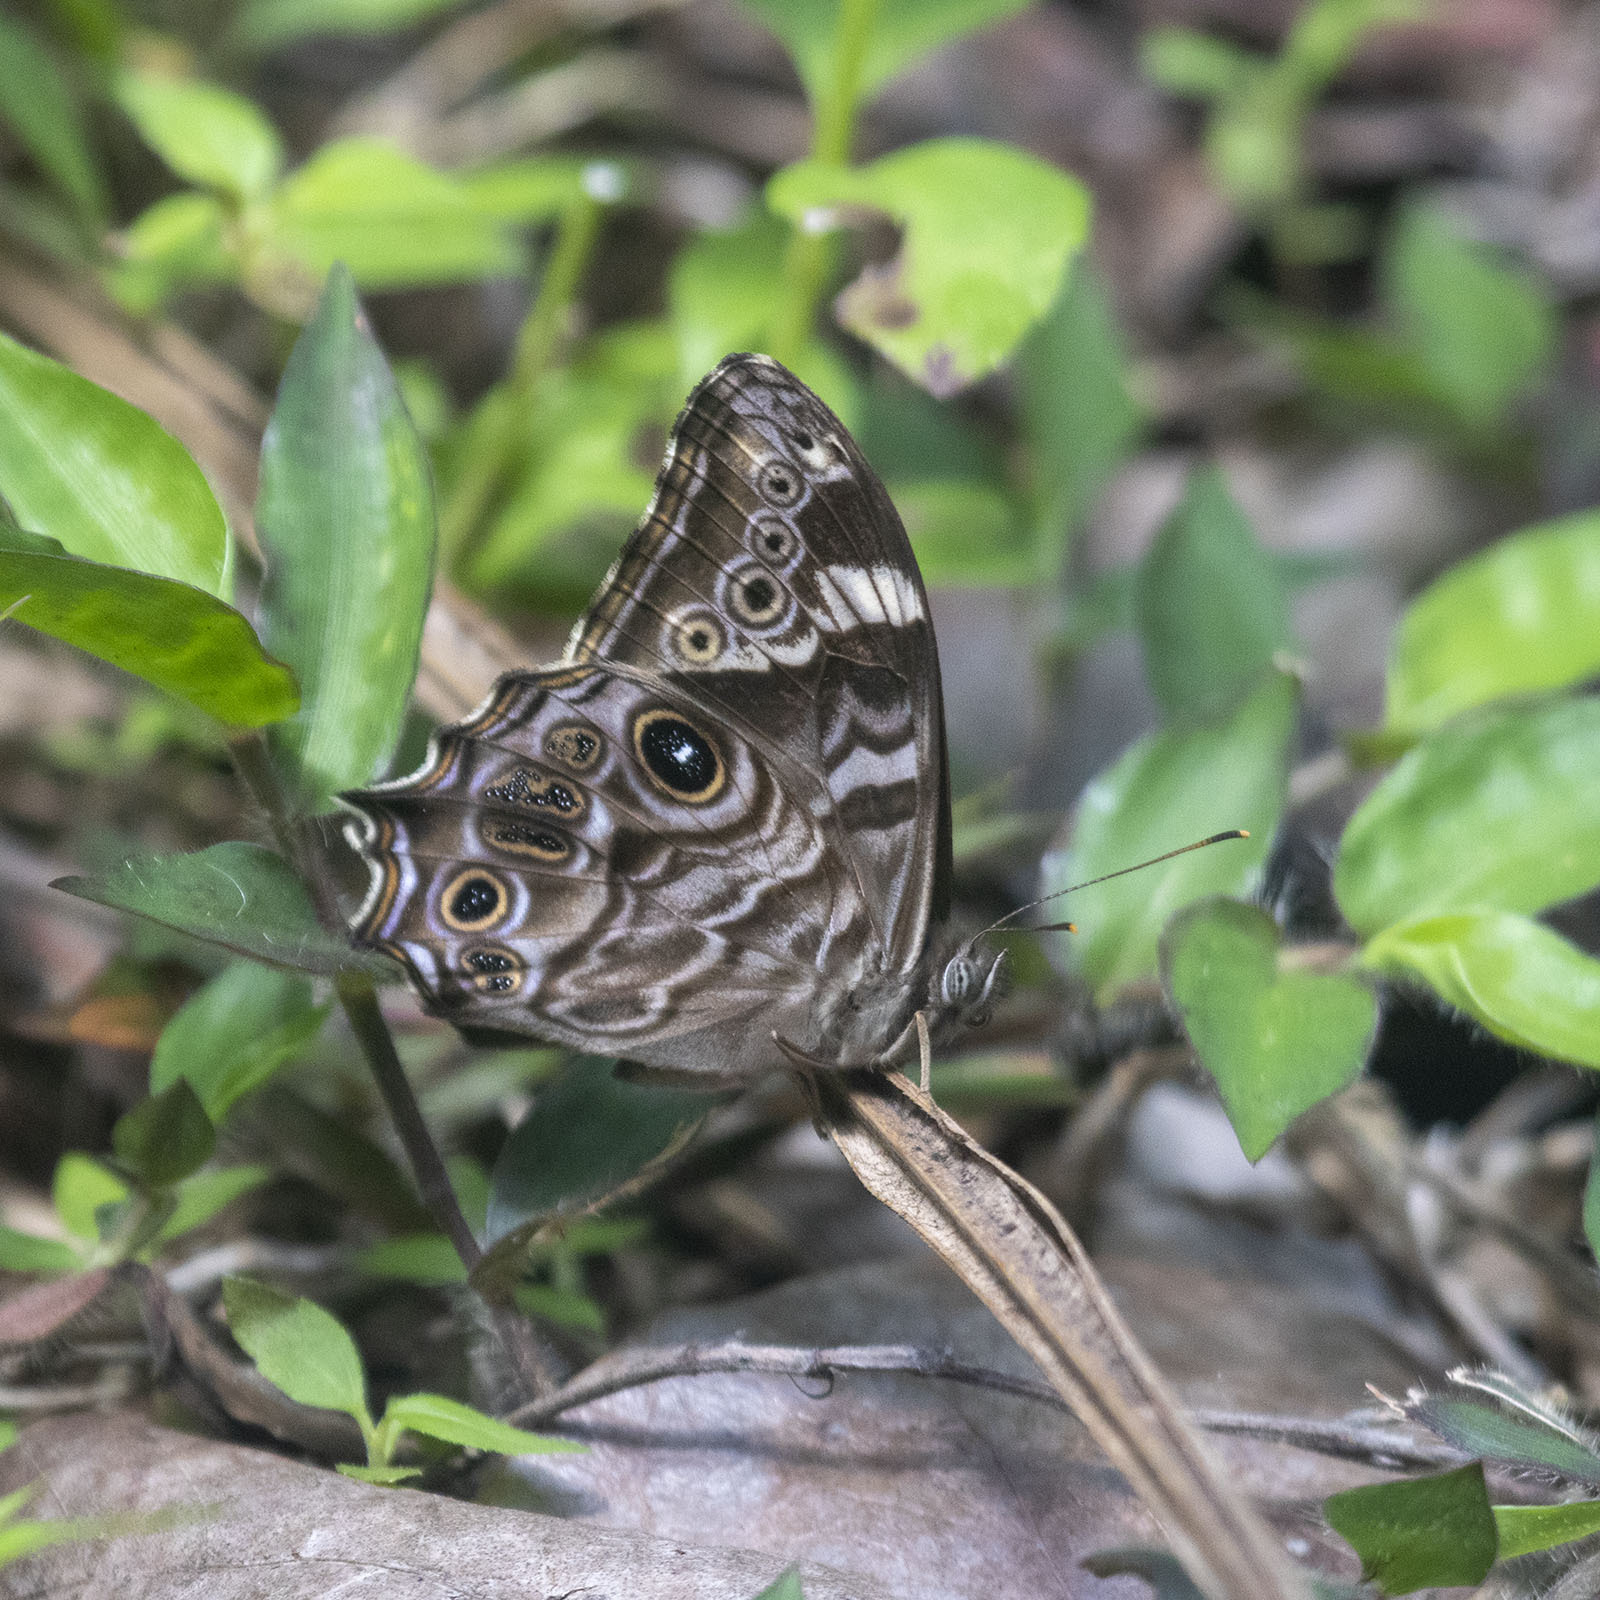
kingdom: Animalia
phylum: Arthropoda
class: Insecta
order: Lepidoptera
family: Nymphalidae
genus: Lethe
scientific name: Lethe rohria
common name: Common treebrown
